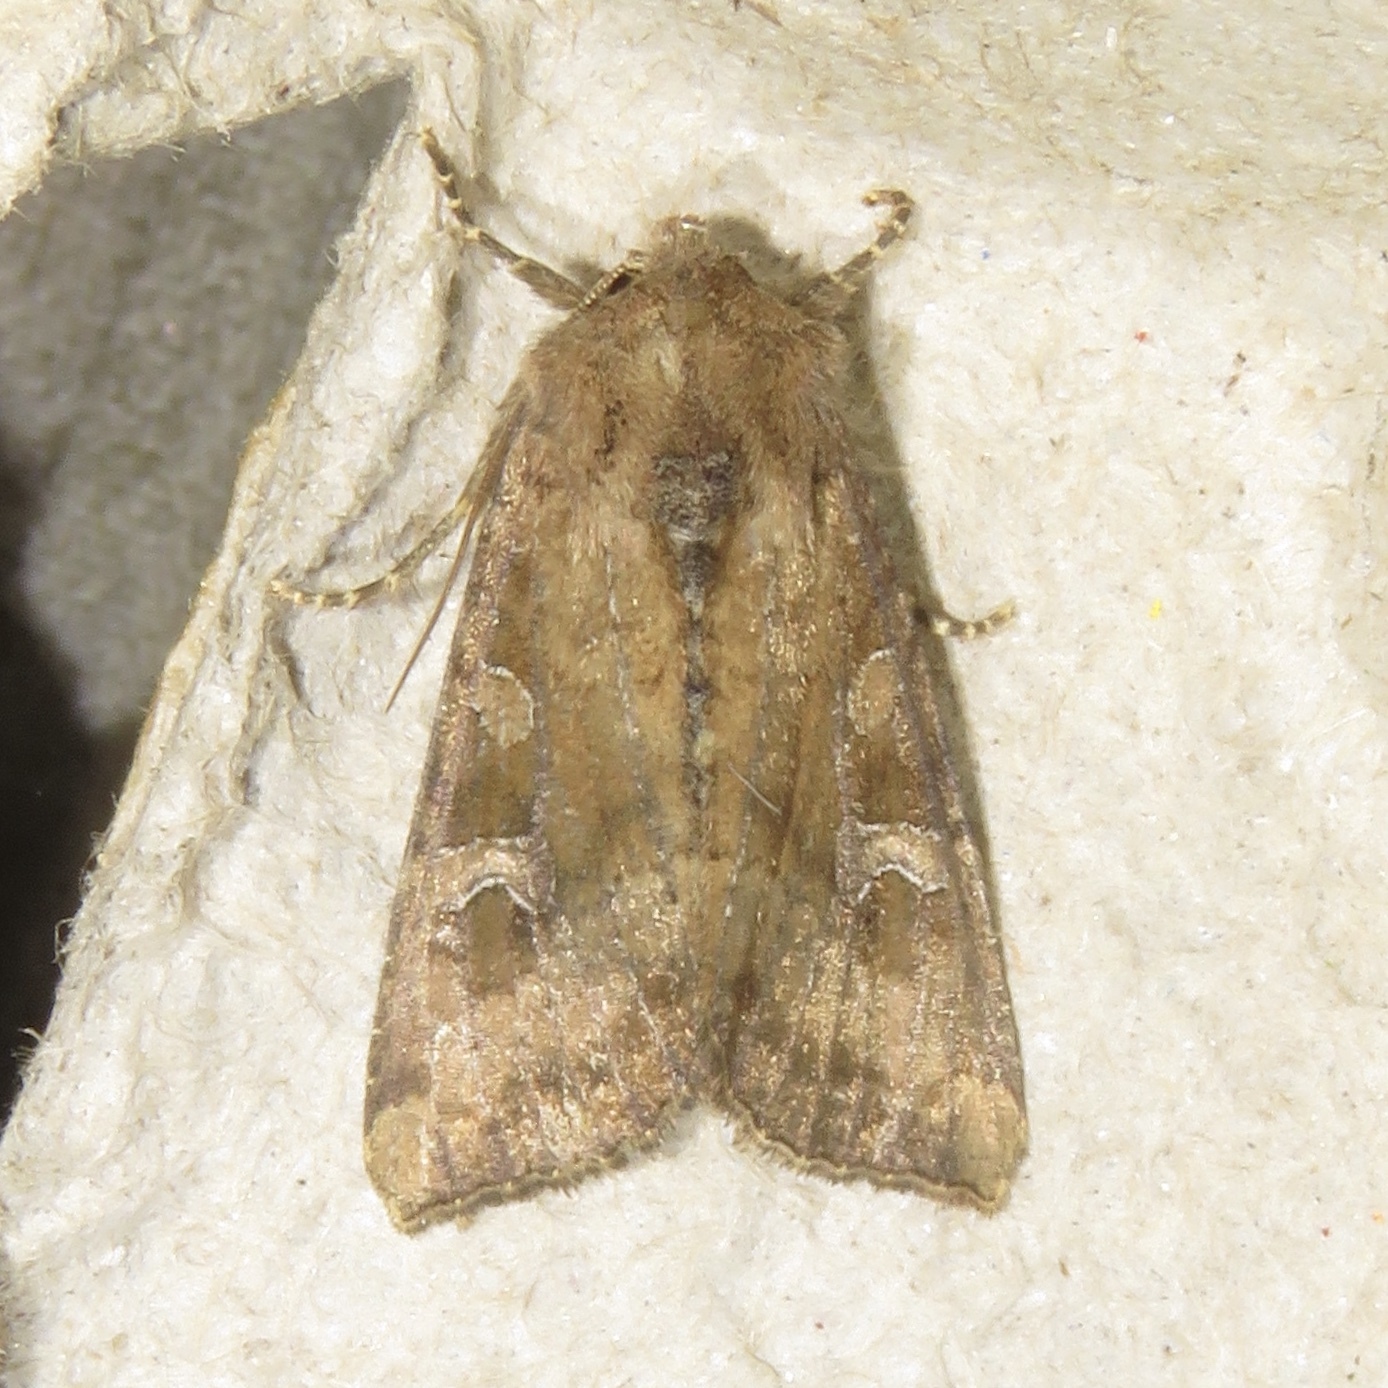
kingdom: Animalia
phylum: Arthropoda
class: Insecta
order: Lepidoptera
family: Noctuidae
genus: Loscopia
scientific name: Loscopia velata
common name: Veiled ear moth
